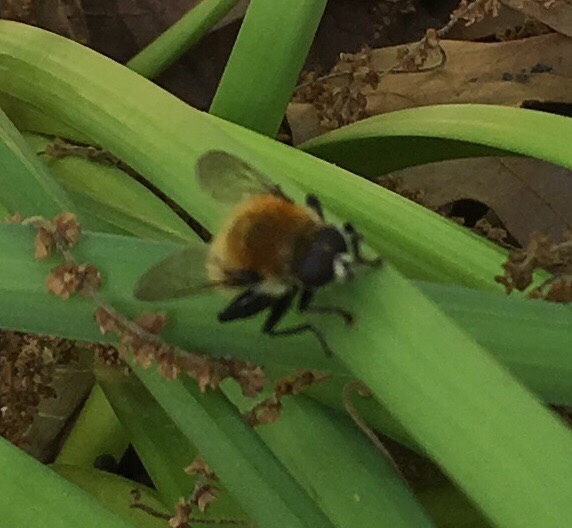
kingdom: Animalia
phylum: Arthropoda
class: Insecta
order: Diptera
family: Syrphidae
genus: Merodon
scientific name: Merodon equestris
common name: Greater bulb-fly
